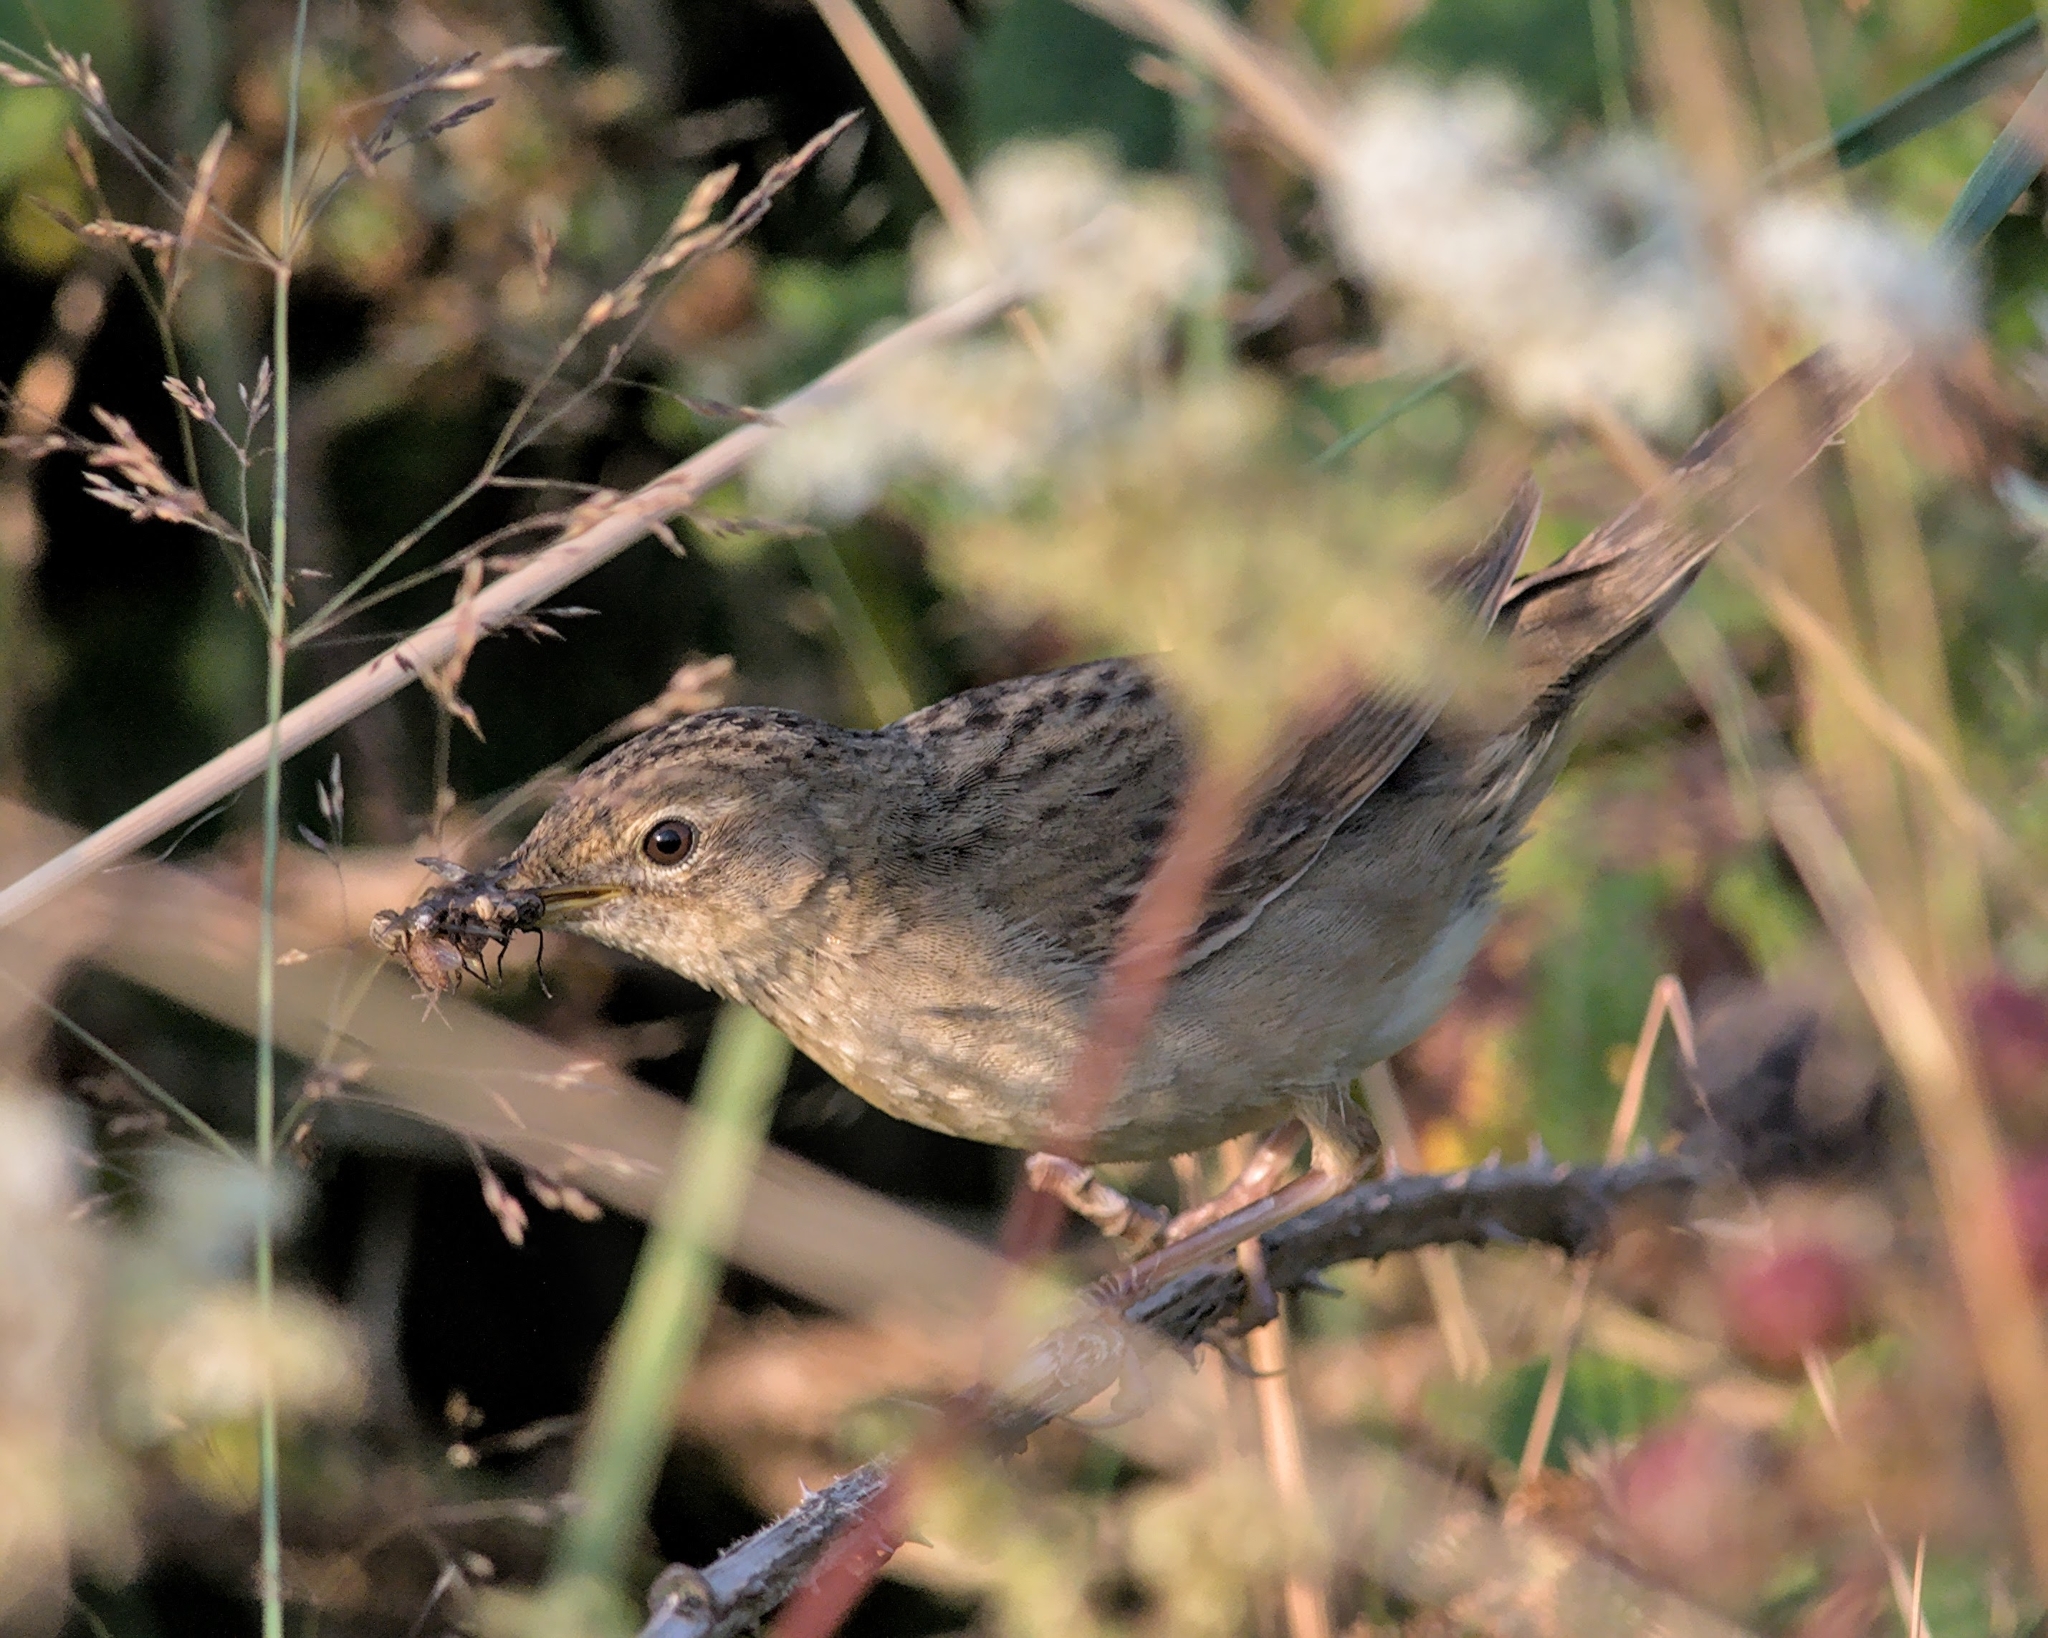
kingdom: Animalia
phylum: Chordata
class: Aves
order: Passeriformes
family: Locustellidae
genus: Locustella
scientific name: Locustella naevia
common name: Common grasshopper warbler
